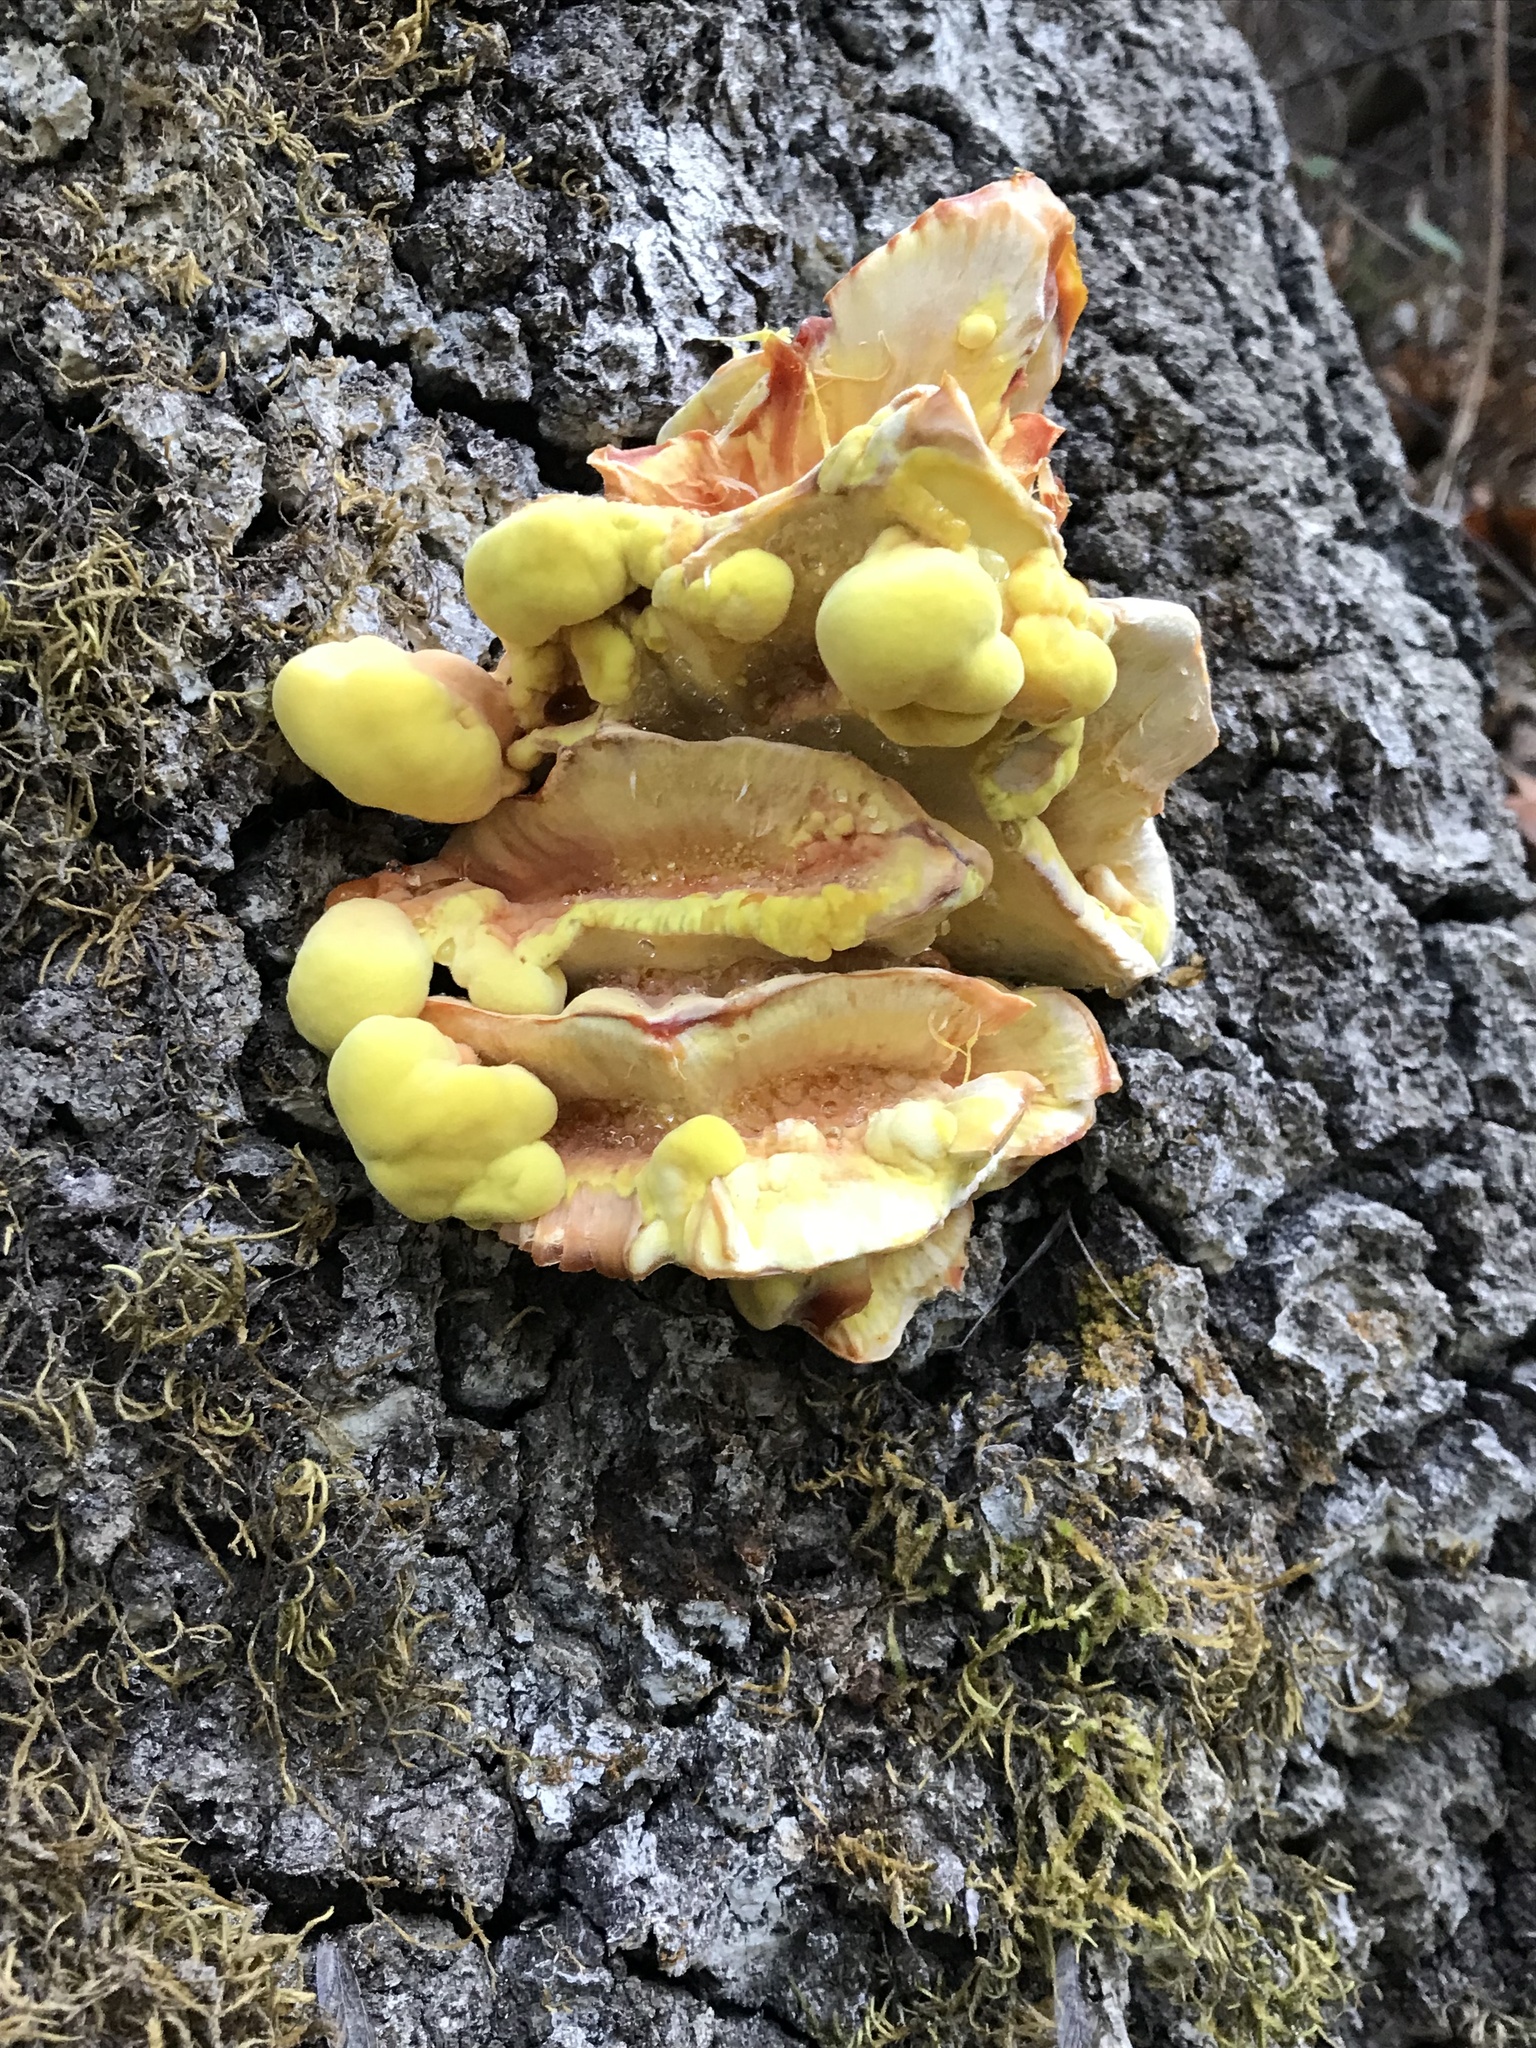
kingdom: Fungi
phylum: Basidiomycota
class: Agaricomycetes
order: Polyporales
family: Laetiporaceae
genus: Laetiporus
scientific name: Laetiporus gilbertsonii
